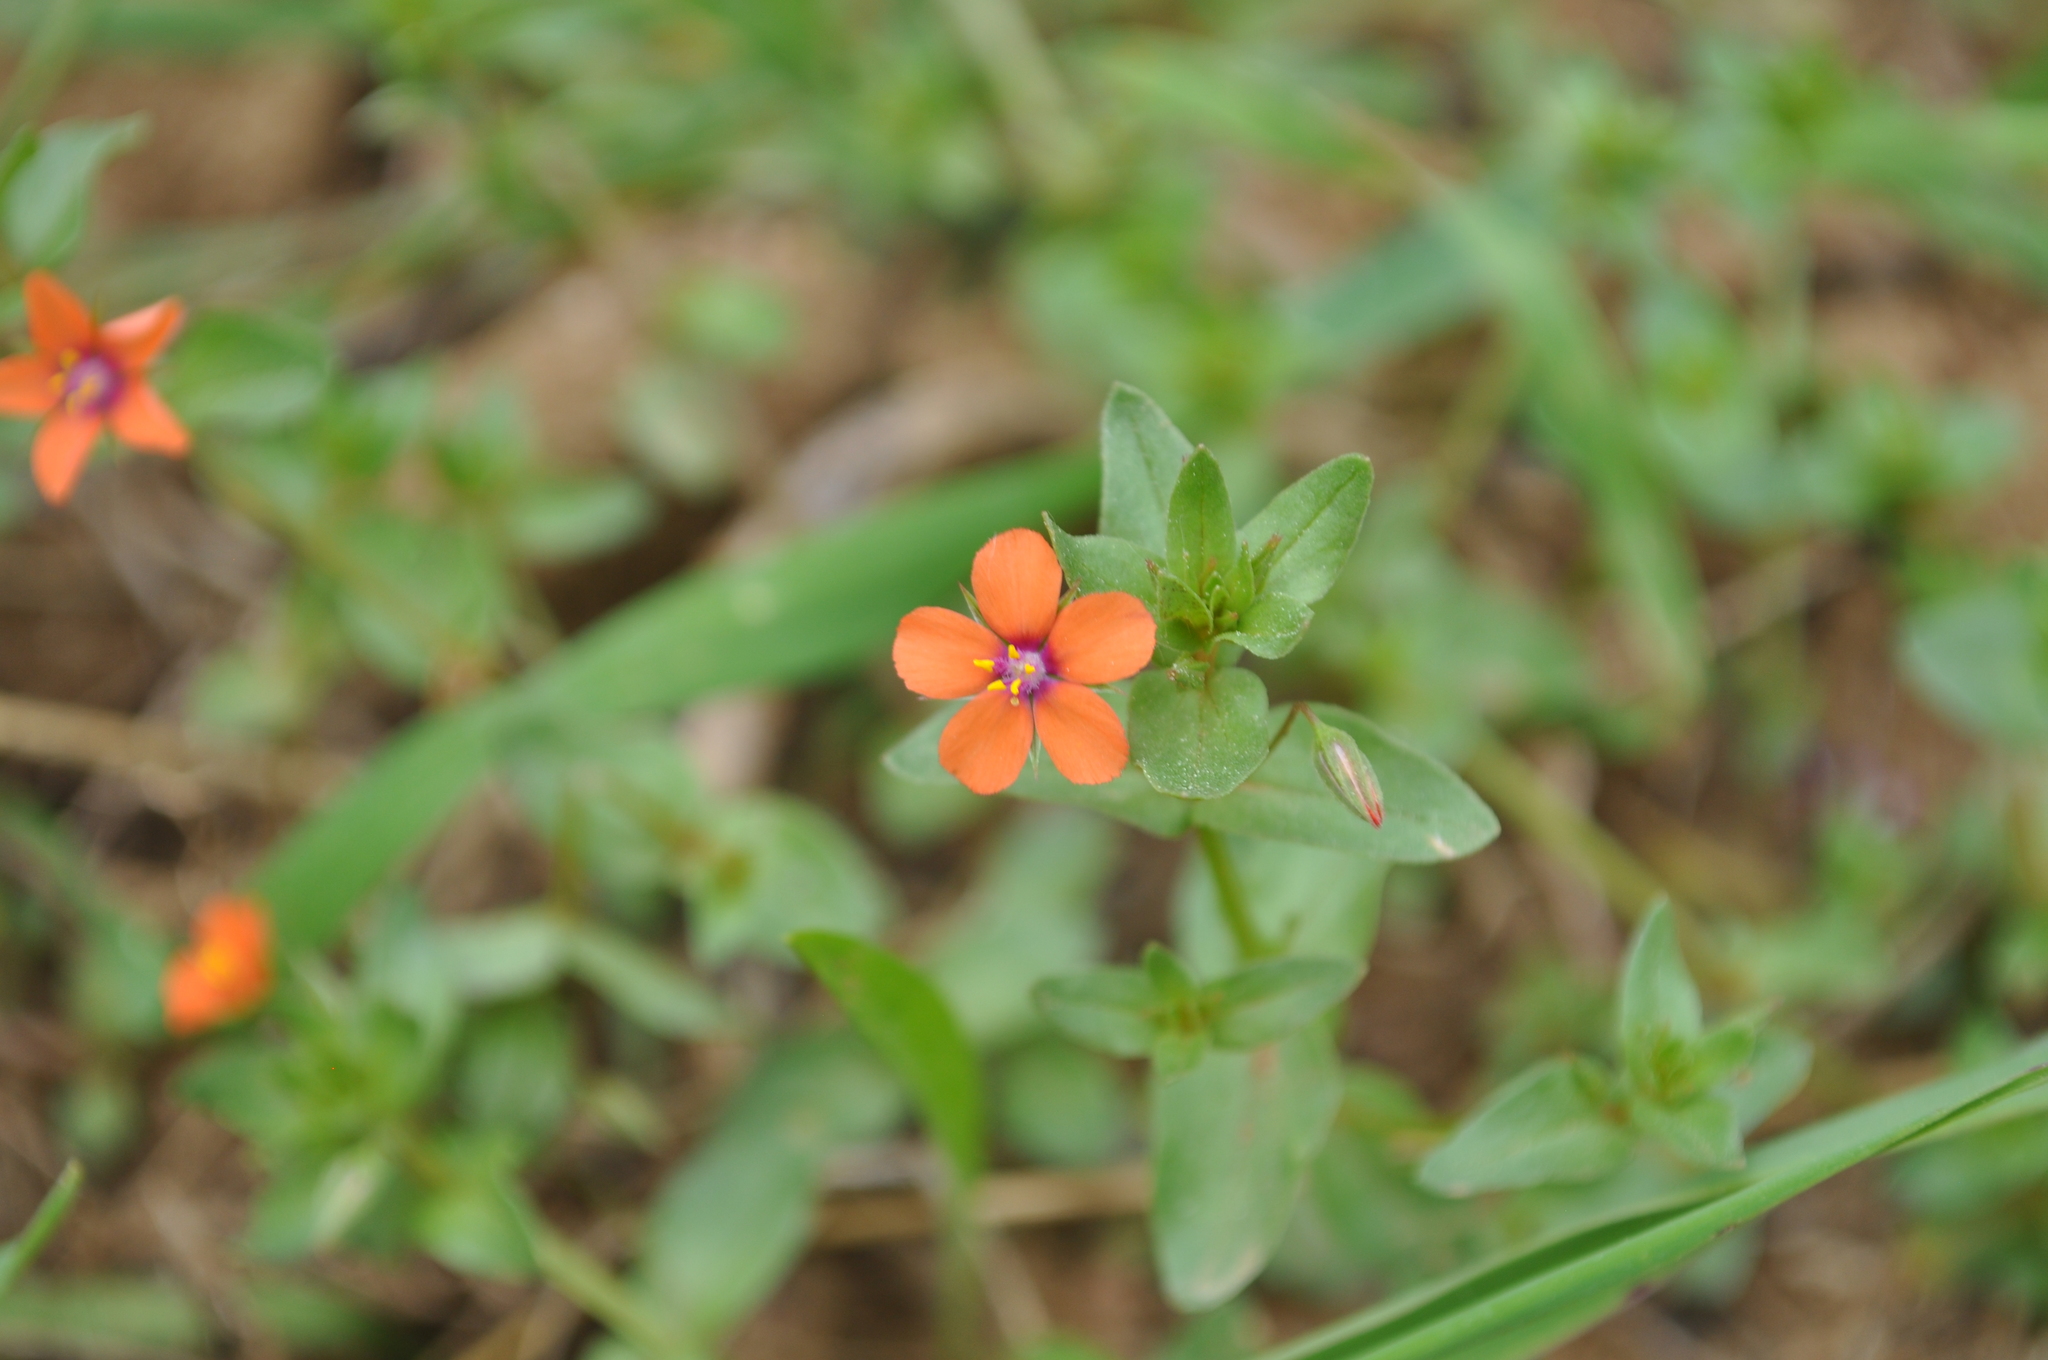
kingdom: Plantae
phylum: Tracheophyta
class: Magnoliopsida
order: Ericales
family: Primulaceae
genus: Lysimachia
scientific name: Lysimachia arvensis
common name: Scarlet pimpernel
